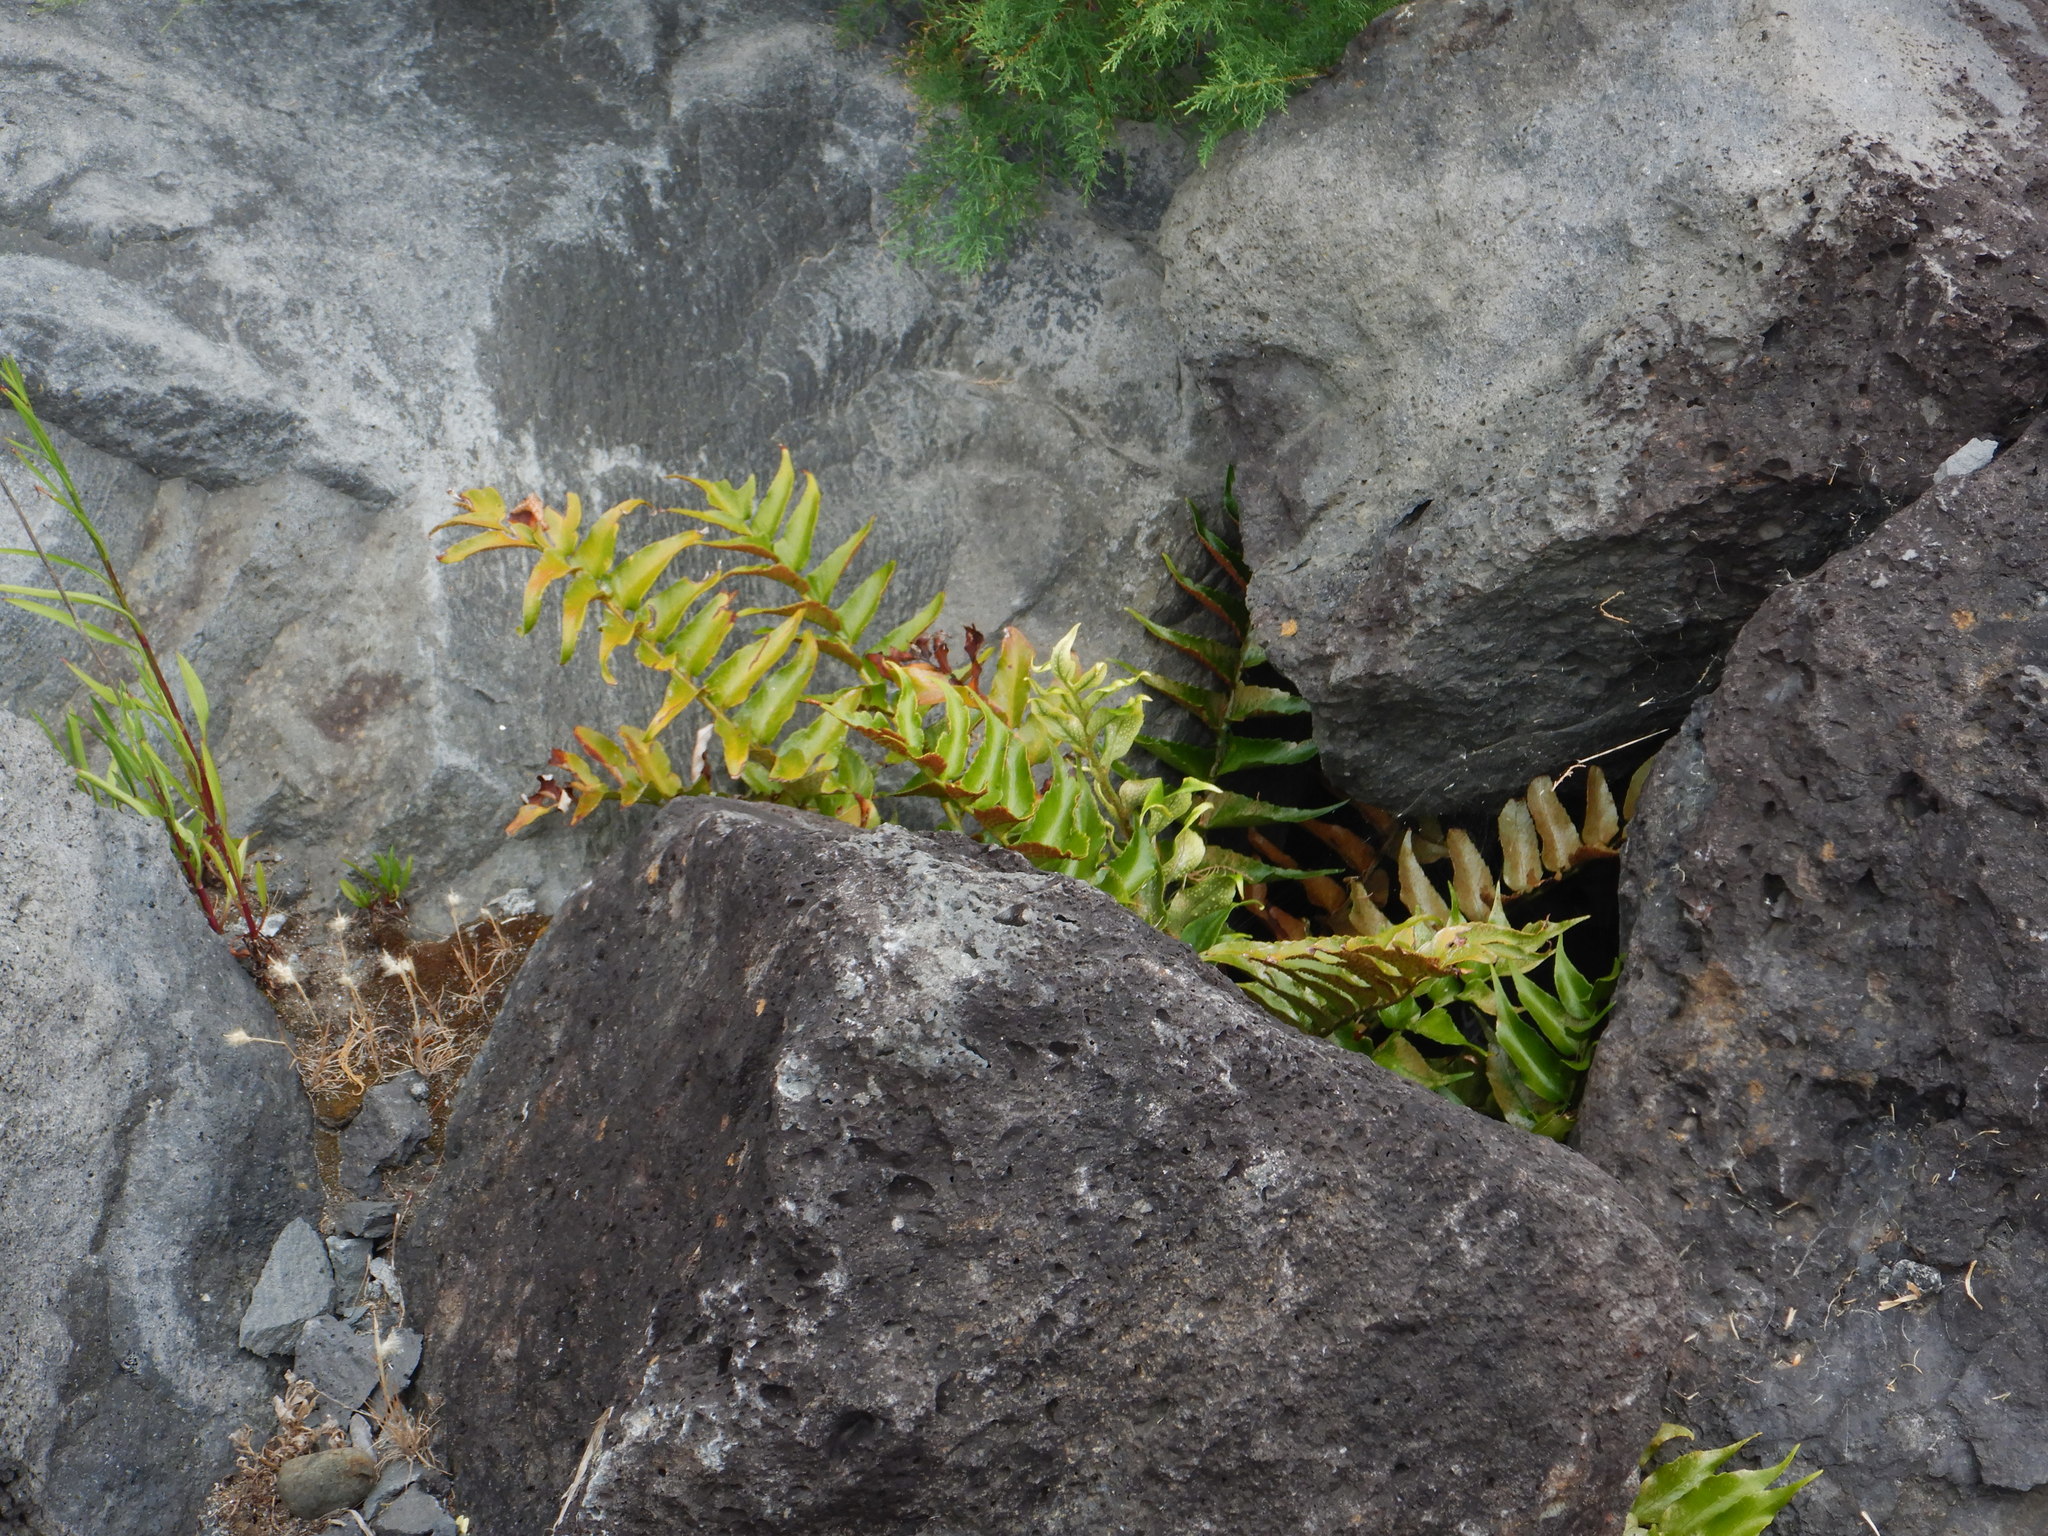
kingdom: Plantae
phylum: Tracheophyta
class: Polypodiopsida
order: Polypodiales
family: Dryopteridaceae
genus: Cyrtomium
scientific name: Cyrtomium falcatum
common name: House holly-fern
